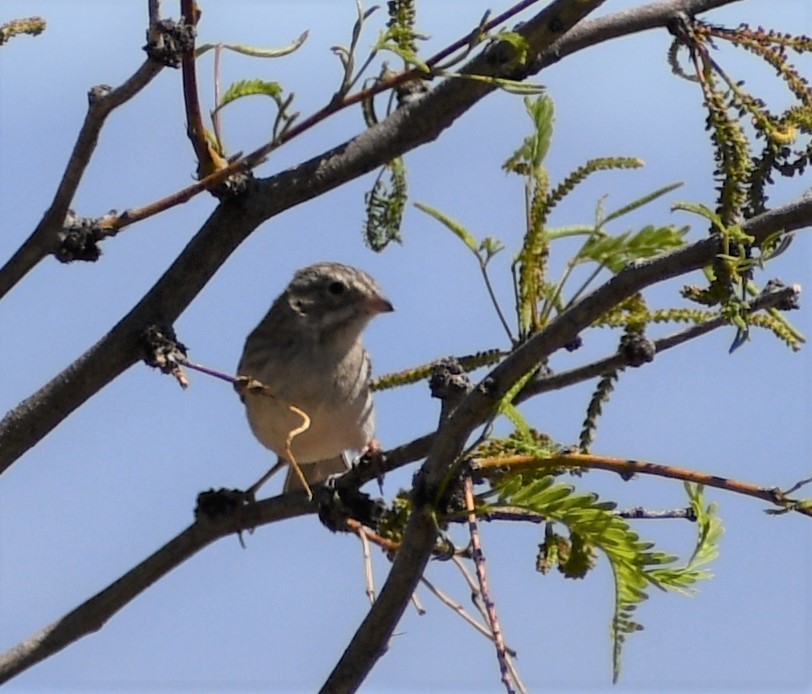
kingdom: Animalia
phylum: Chordata
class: Aves
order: Passeriformes
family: Passerellidae
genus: Spizella
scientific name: Spizella breweri
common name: Brewer's sparrow
